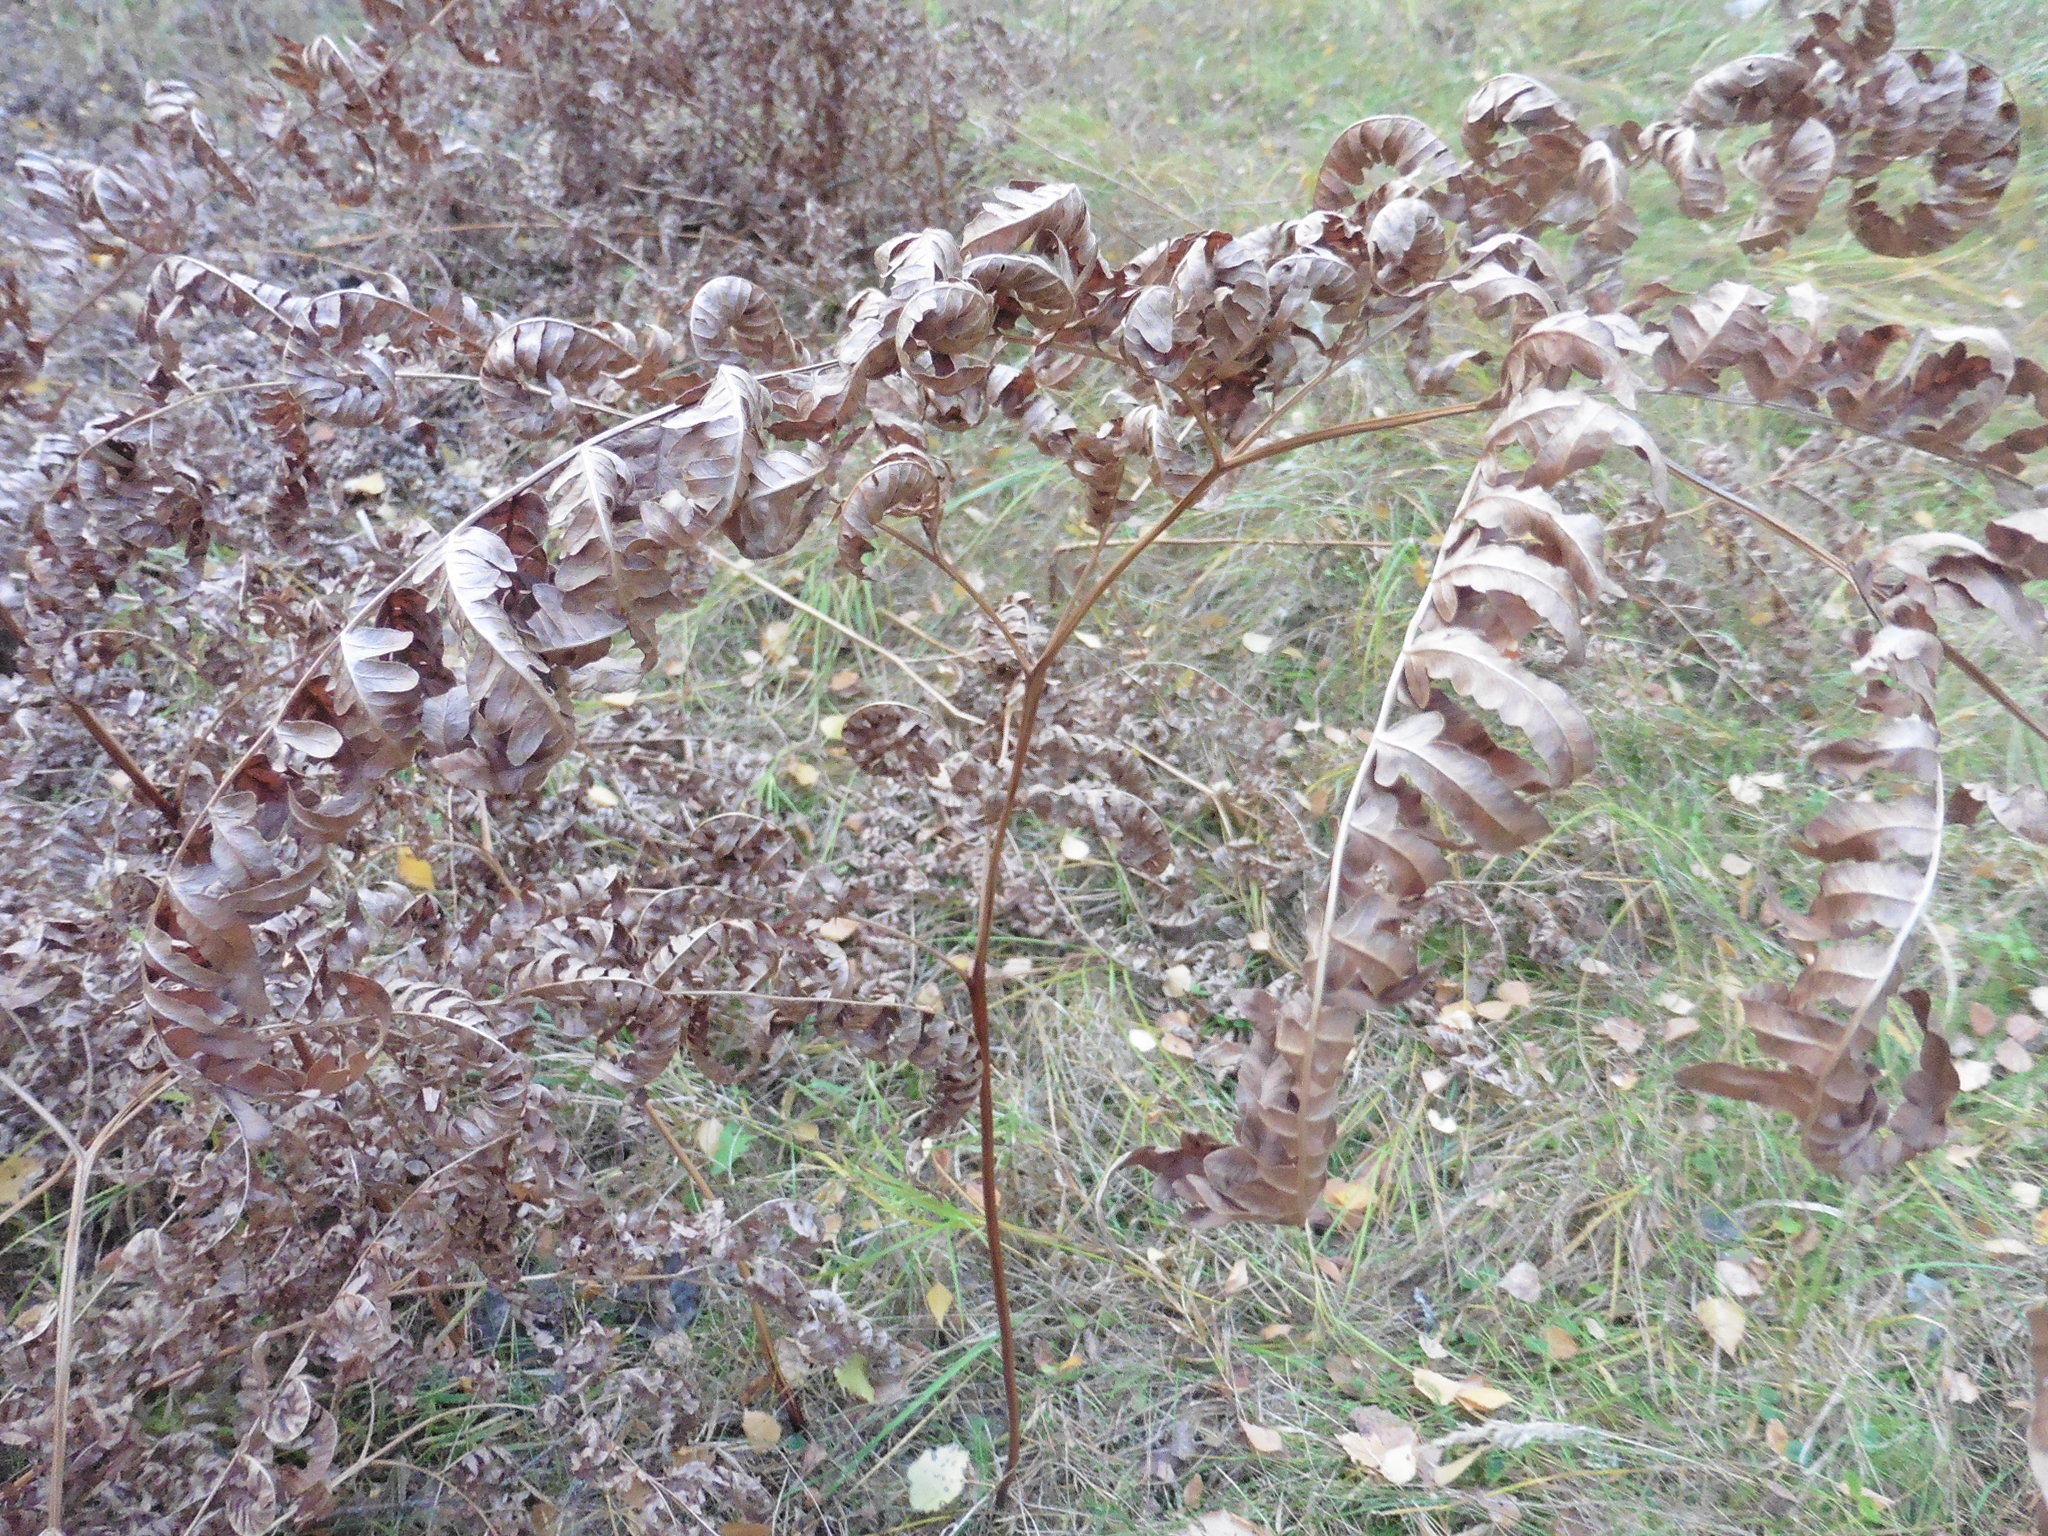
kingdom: Plantae
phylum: Tracheophyta
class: Polypodiopsida
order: Polypodiales
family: Dennstaedtiaceae
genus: Pteridium
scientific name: Pteridium aquilinum
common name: Bracken
